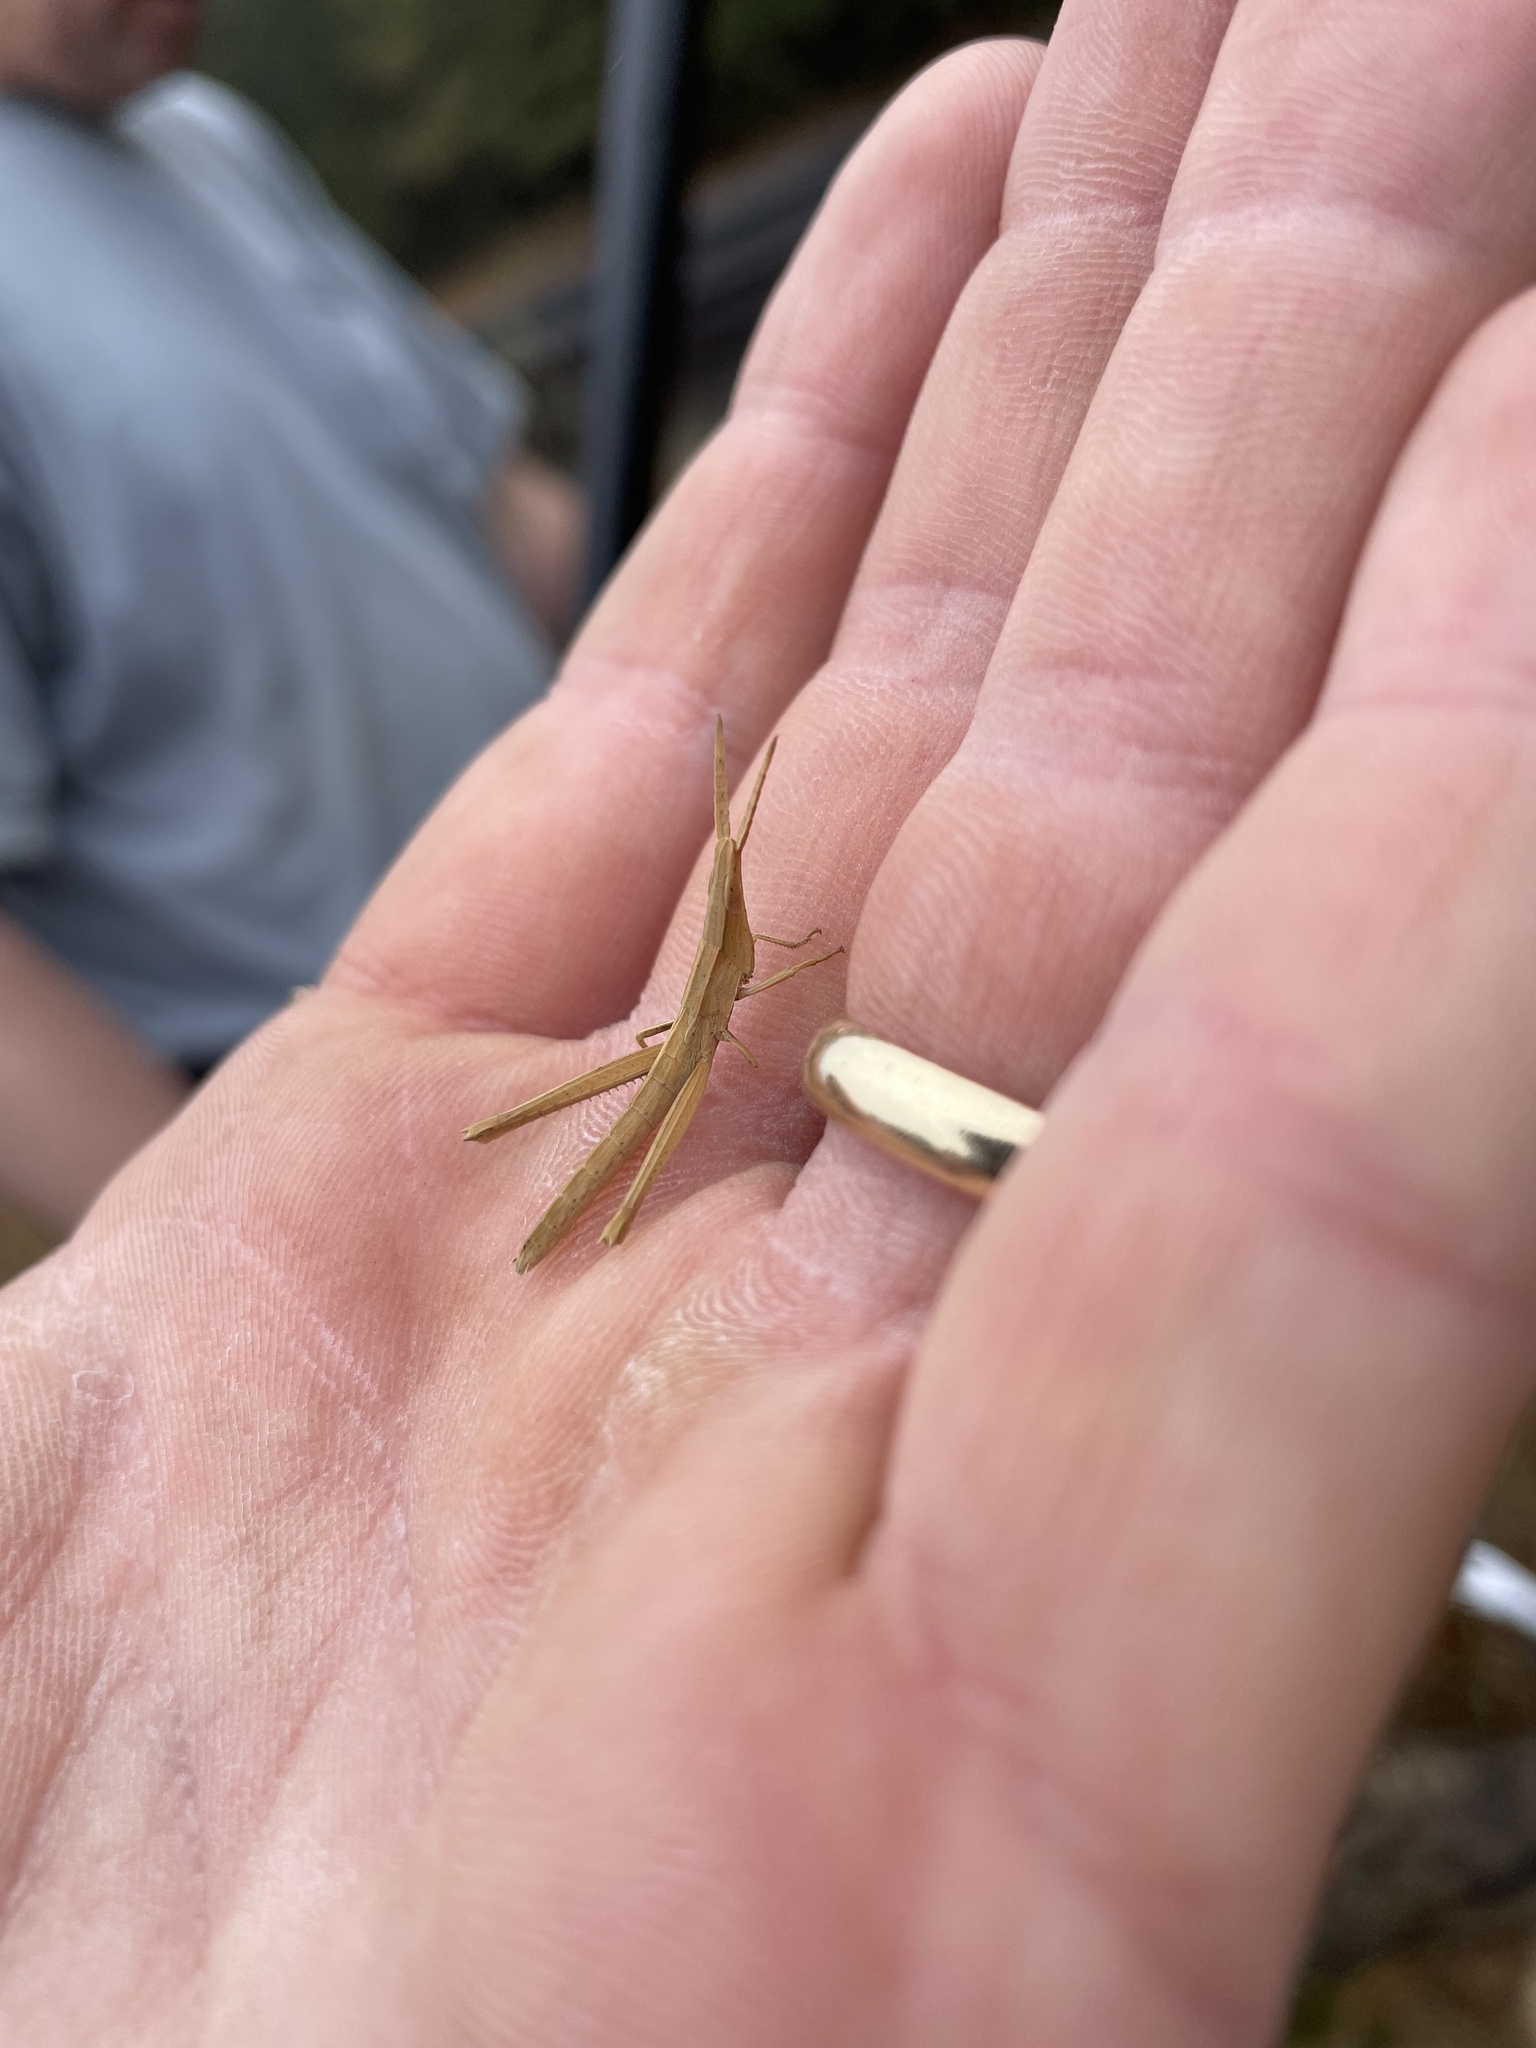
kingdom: Animalia
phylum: Arthropoda
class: Insecta
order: Orthoptera
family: Acrididae
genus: Achurum
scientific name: Achurum carinatum
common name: Long-headed toothpick grasshopper
